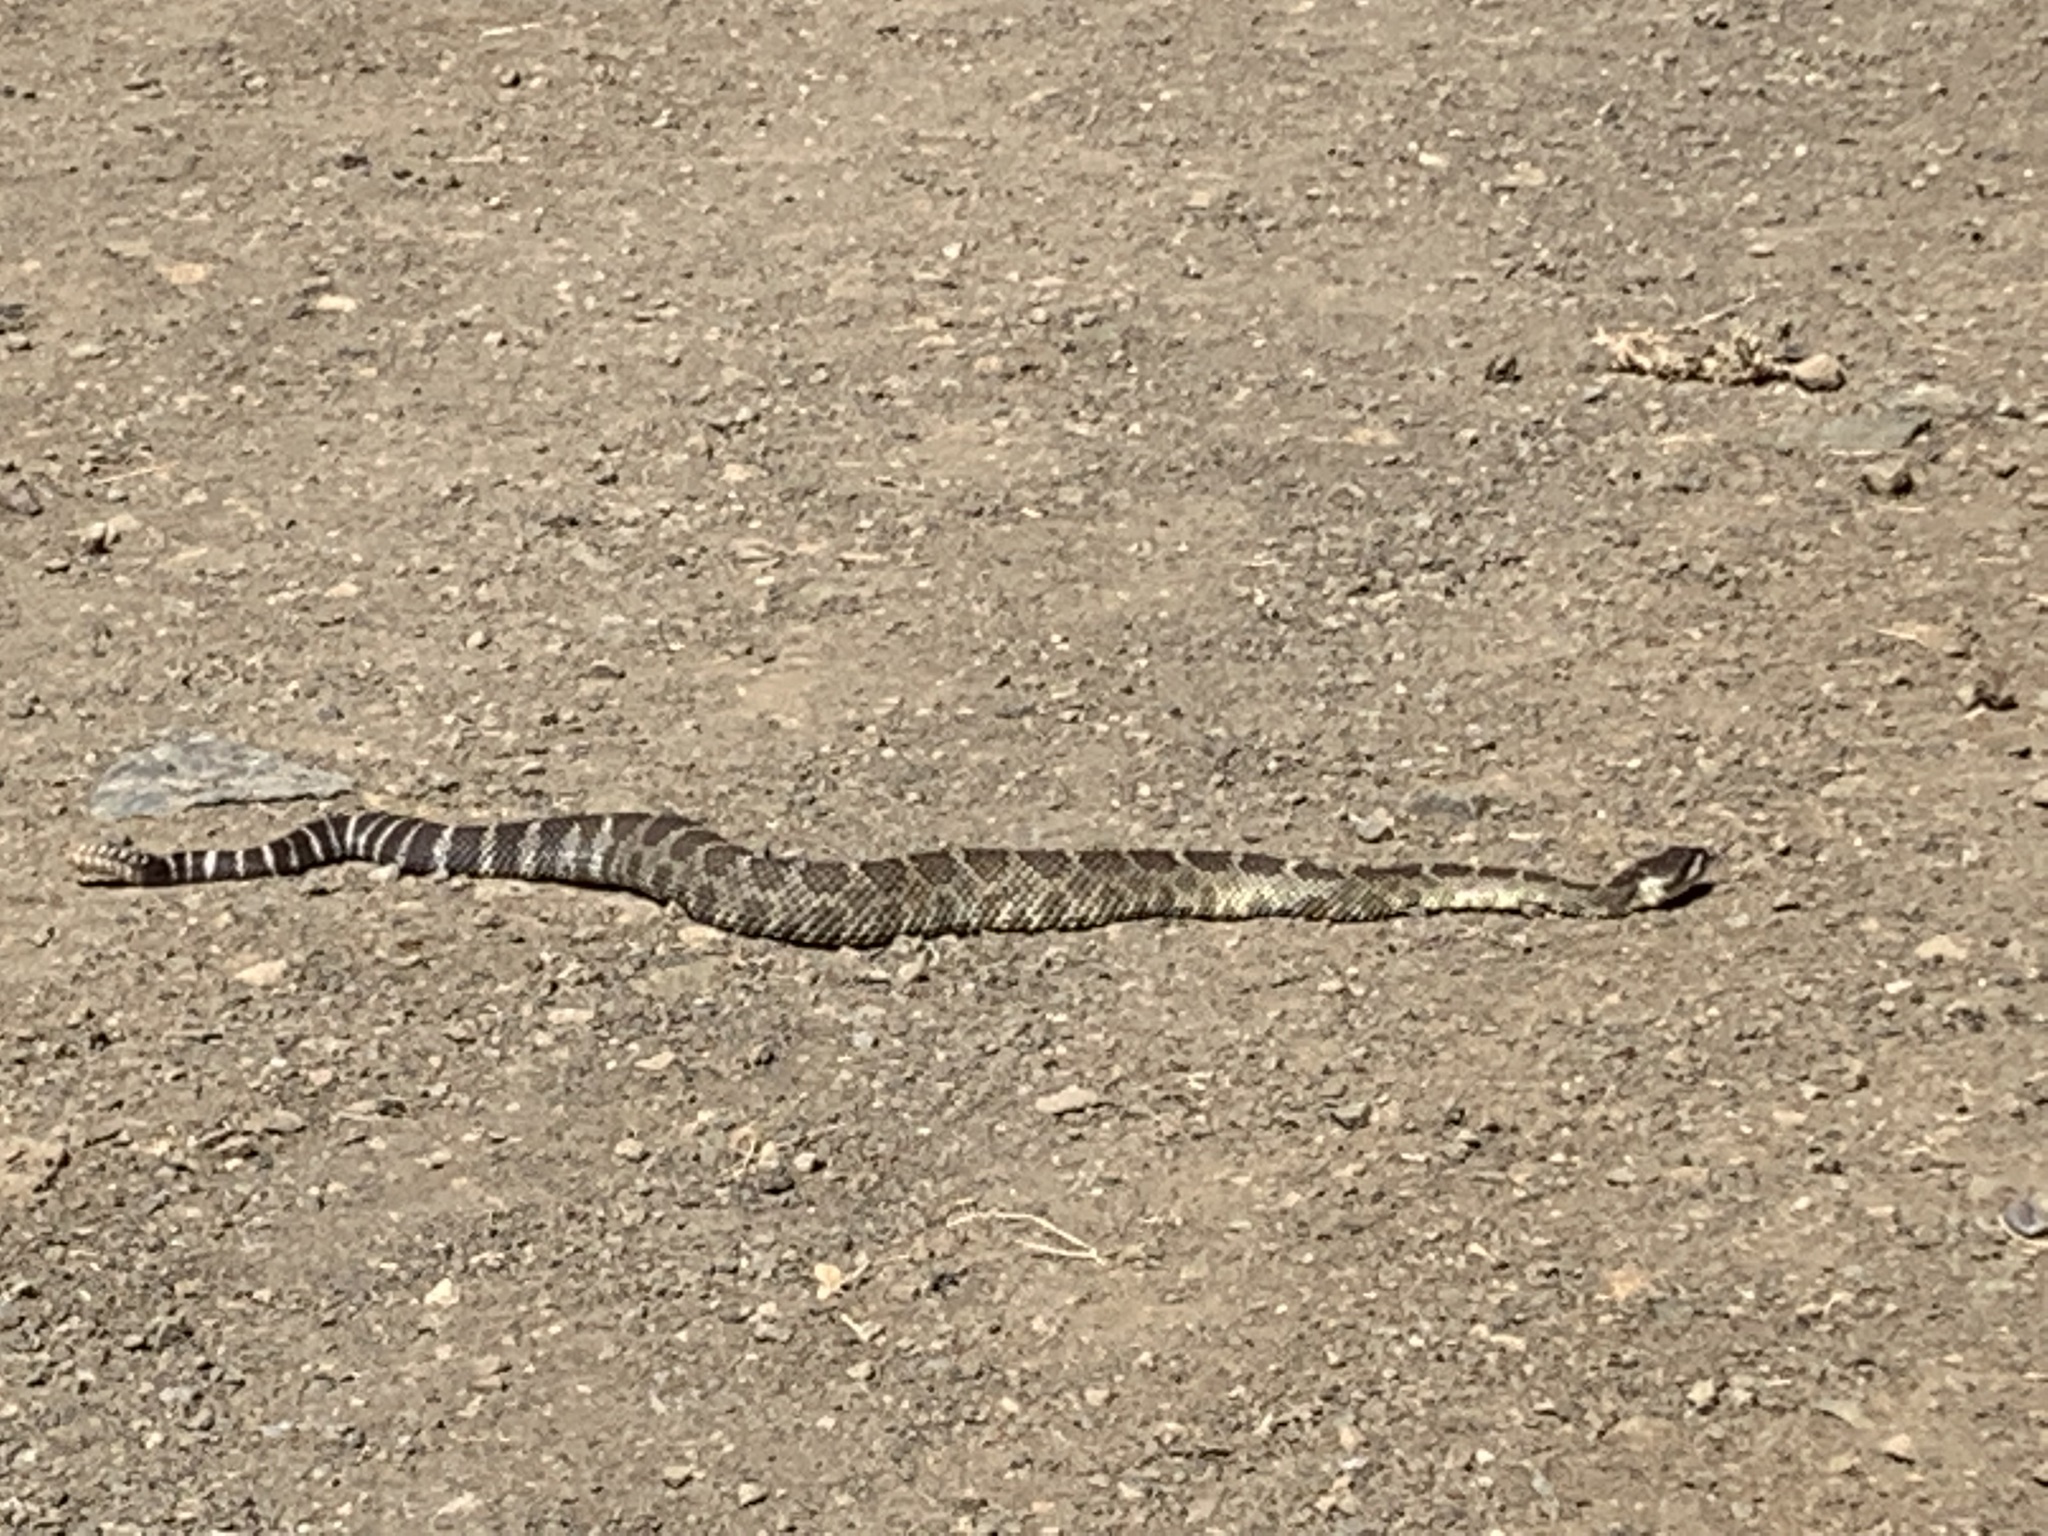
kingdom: Animalia
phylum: Chordata
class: Squamata
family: Viperidae
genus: Crotalus
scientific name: Crotalus oreganus
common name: Abyssus
